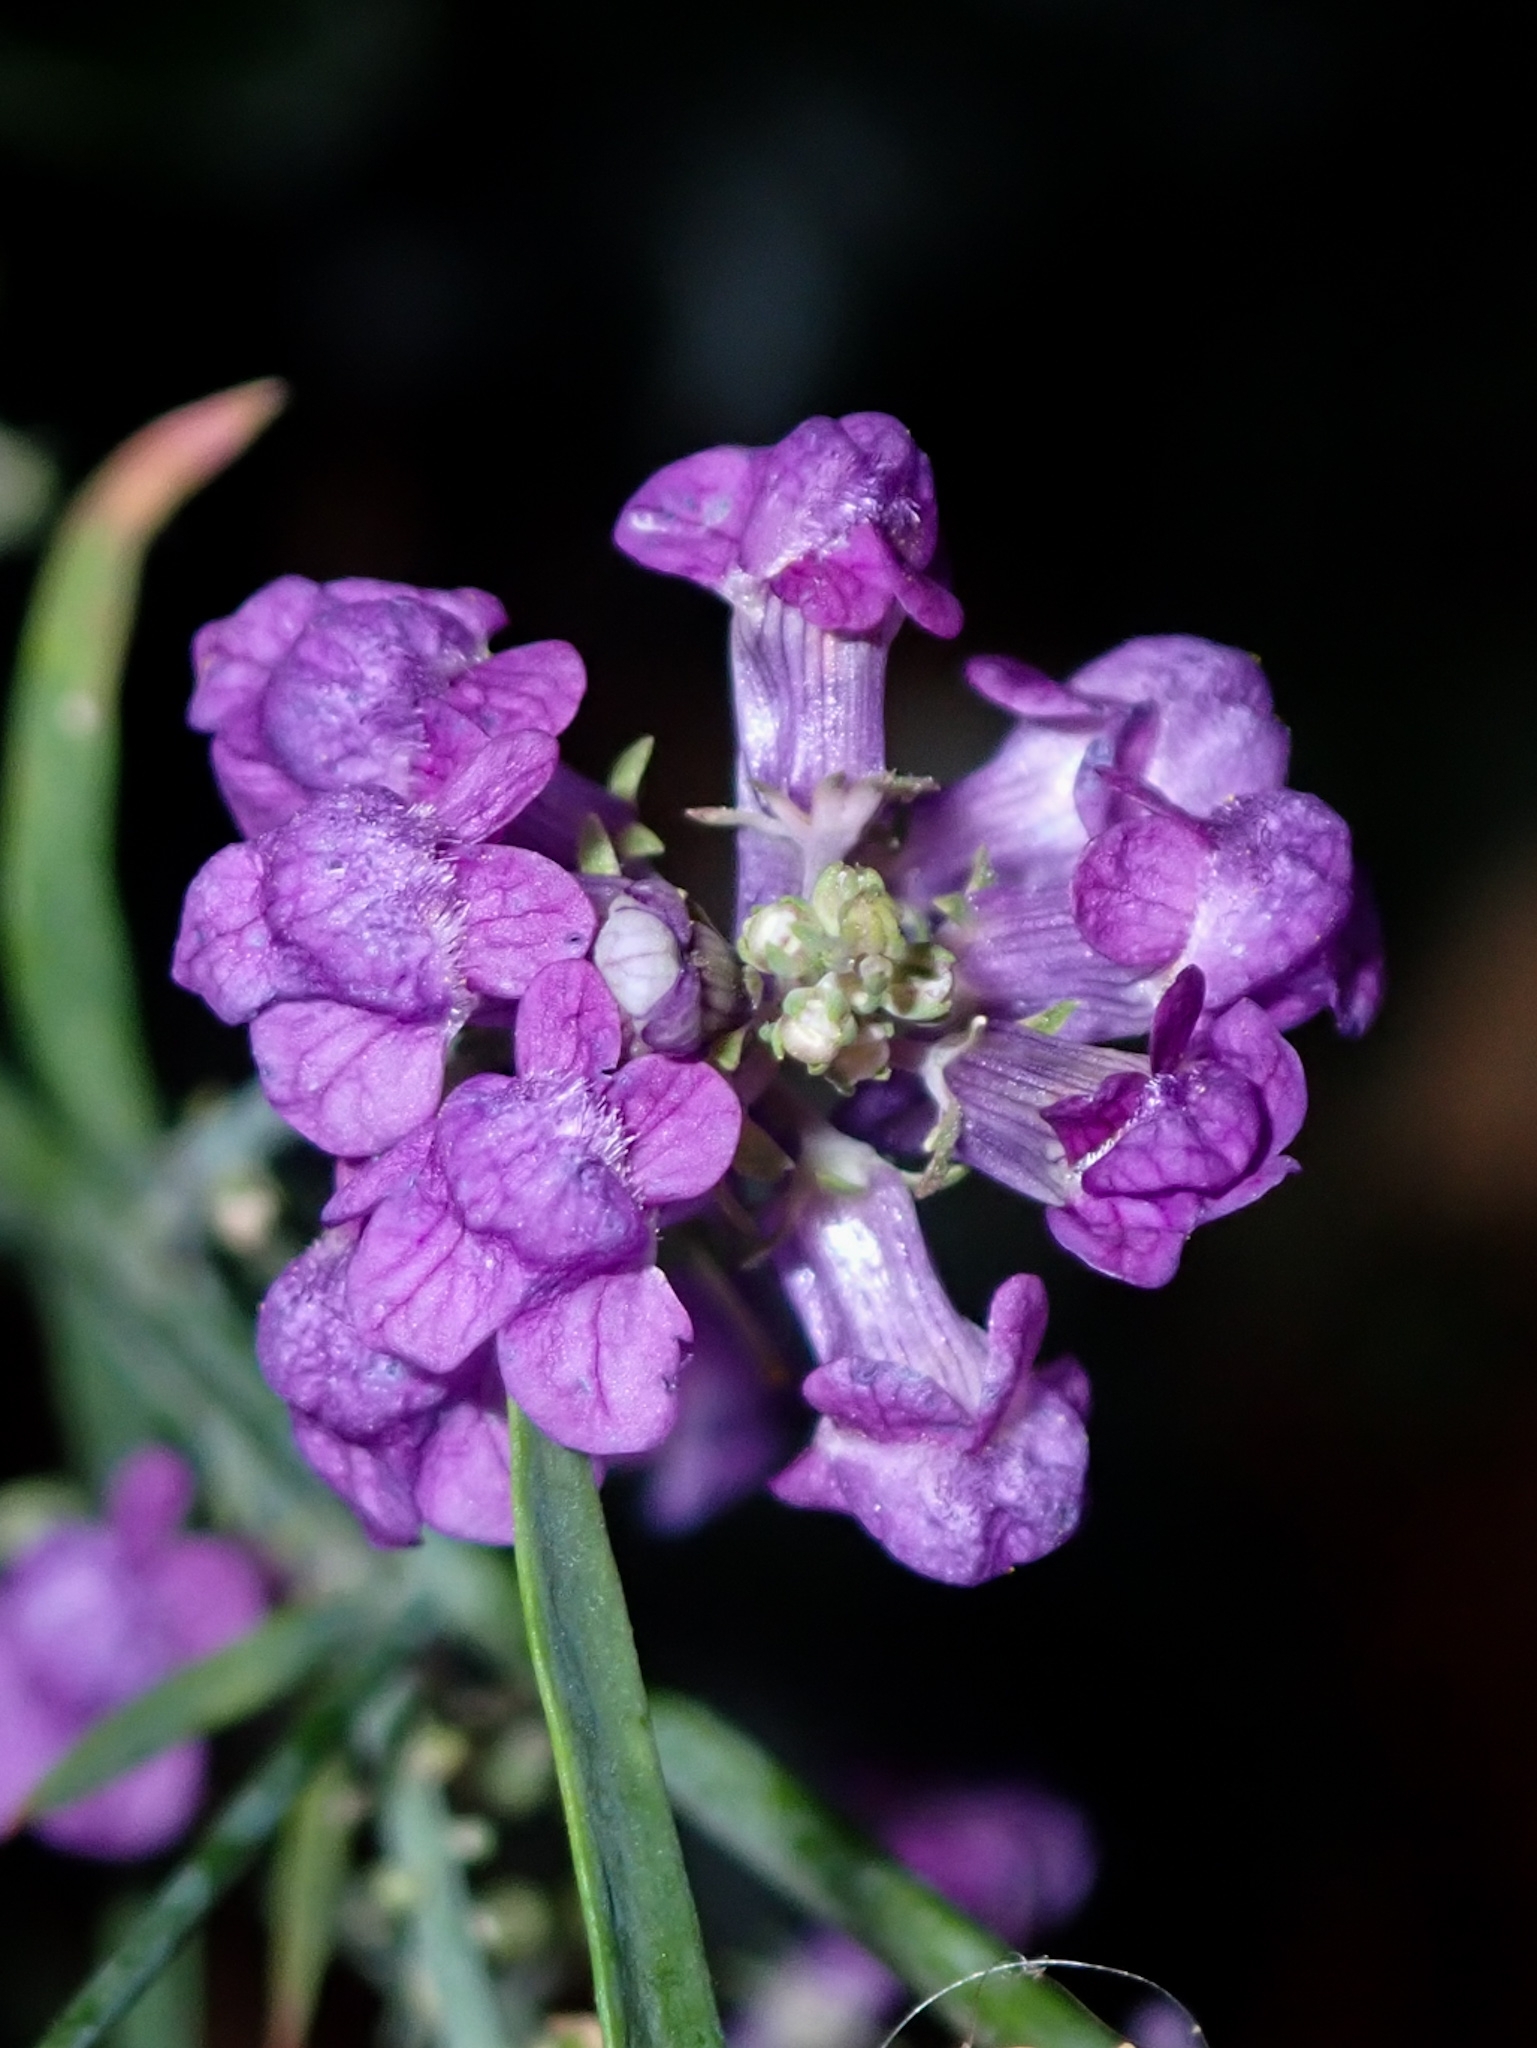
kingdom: Plantae
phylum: Tracheophyta
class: Magnoliopsida
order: Lamiales
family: Plantaginaceae
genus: Linaria
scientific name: Linaria purpurea
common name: Purple toadflax
